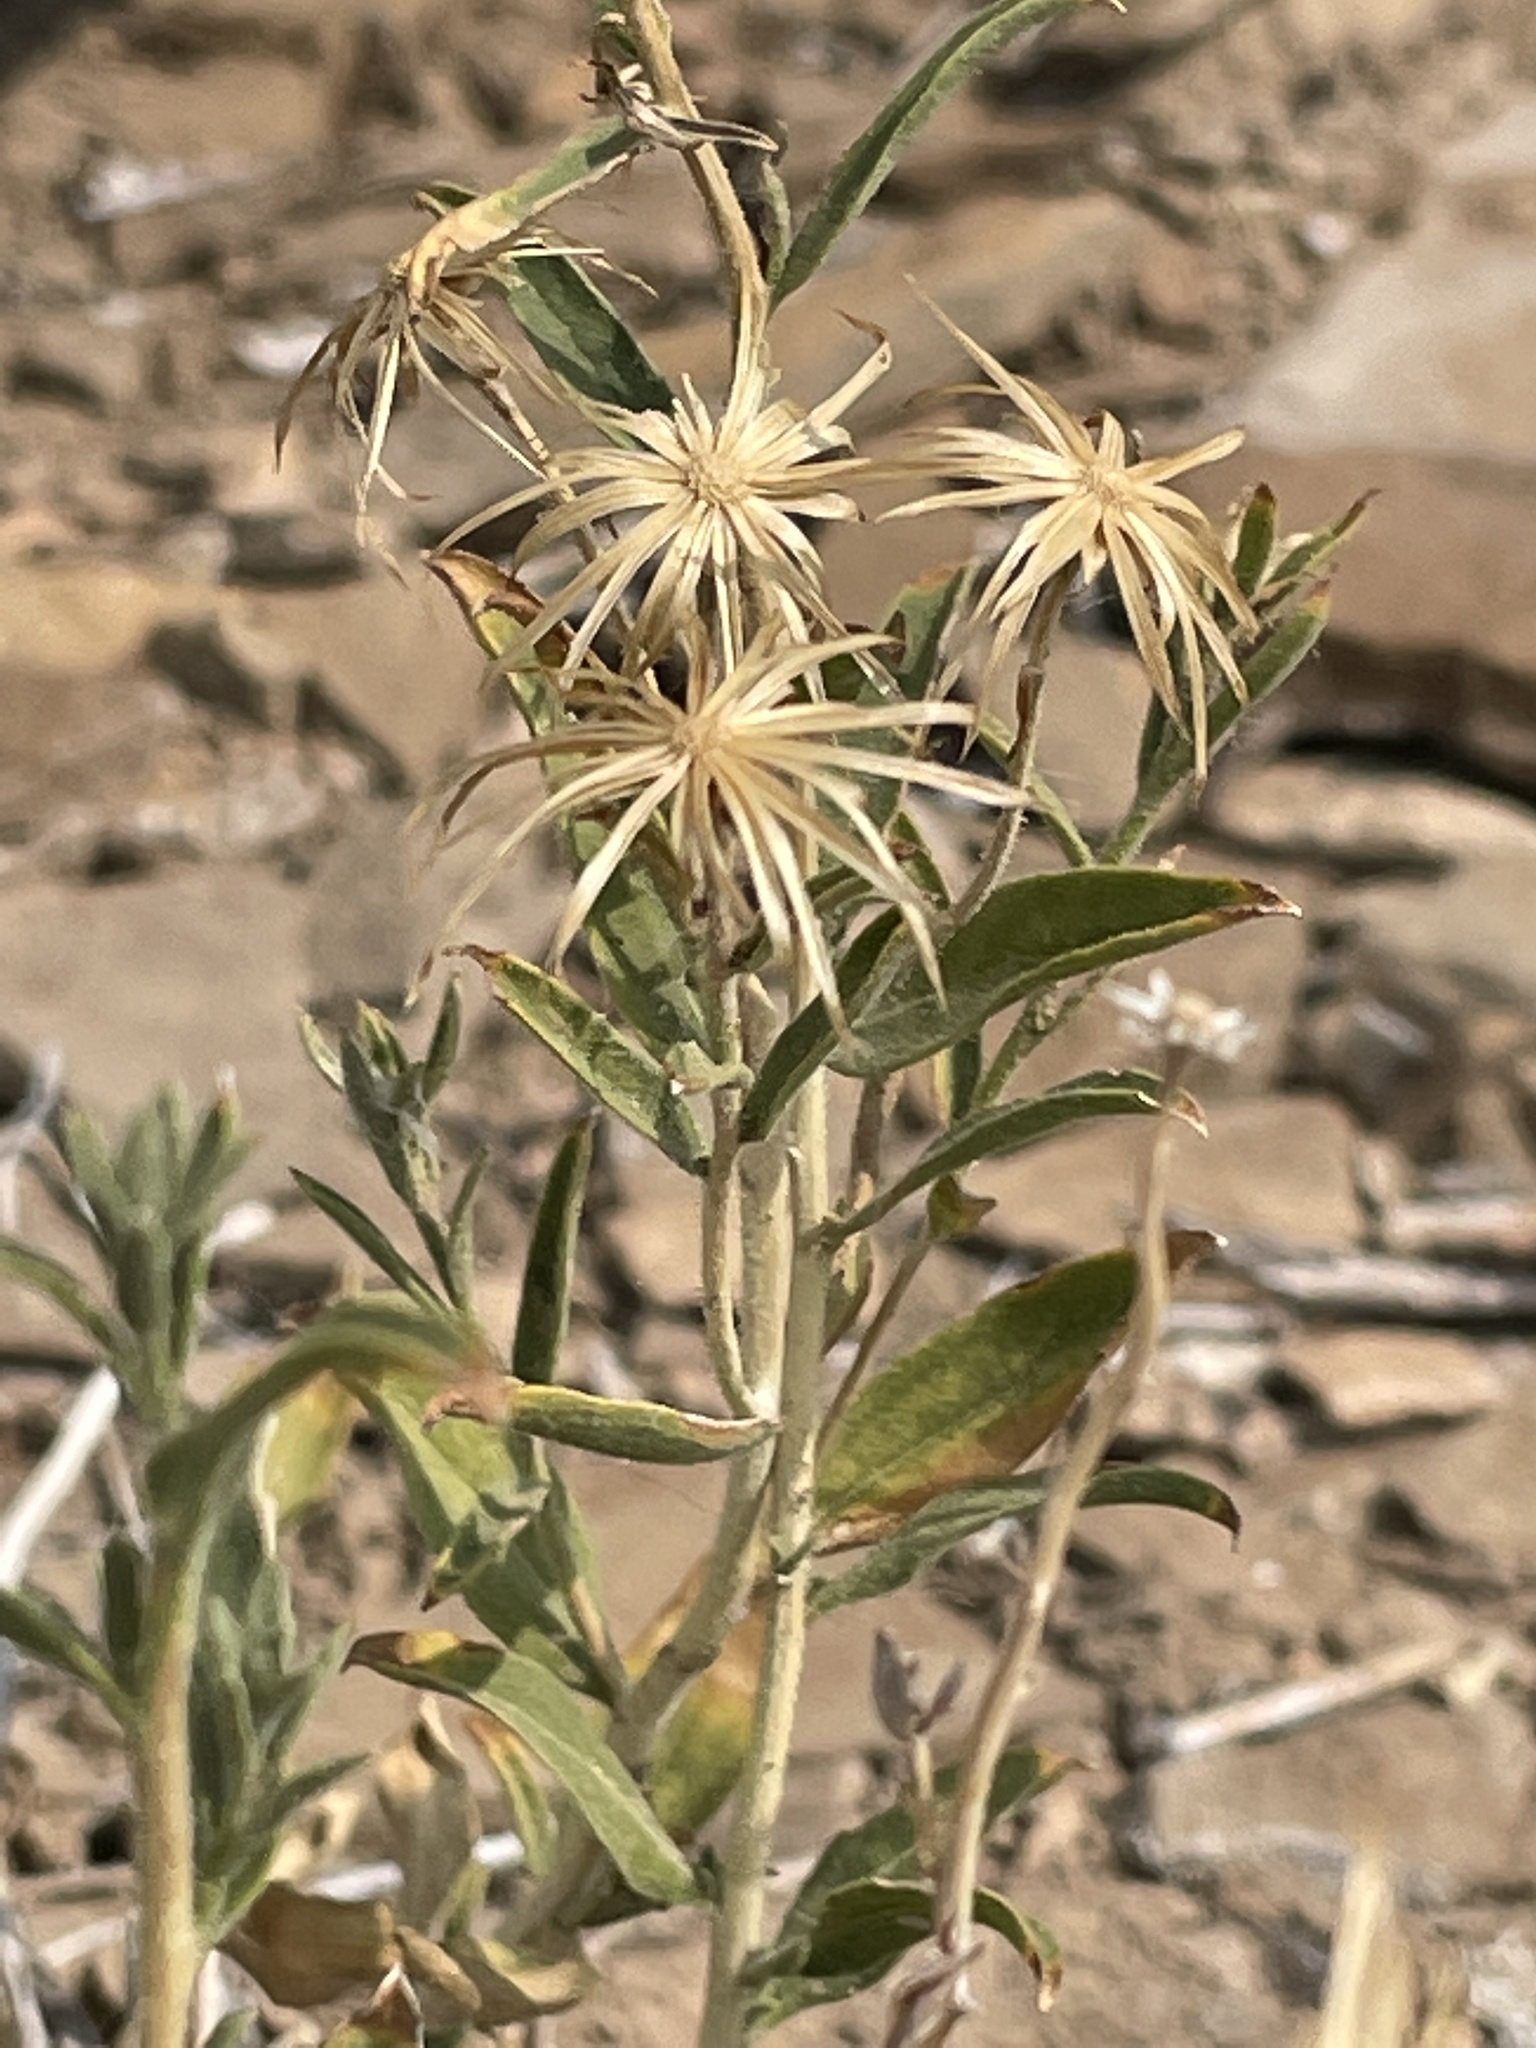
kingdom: Plantae
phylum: Tracheophyta
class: Magnoliopsida
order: Asterales
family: Asteraceae
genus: Brickellia
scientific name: Brickellia oblongifolia
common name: Mojave brickellbush
